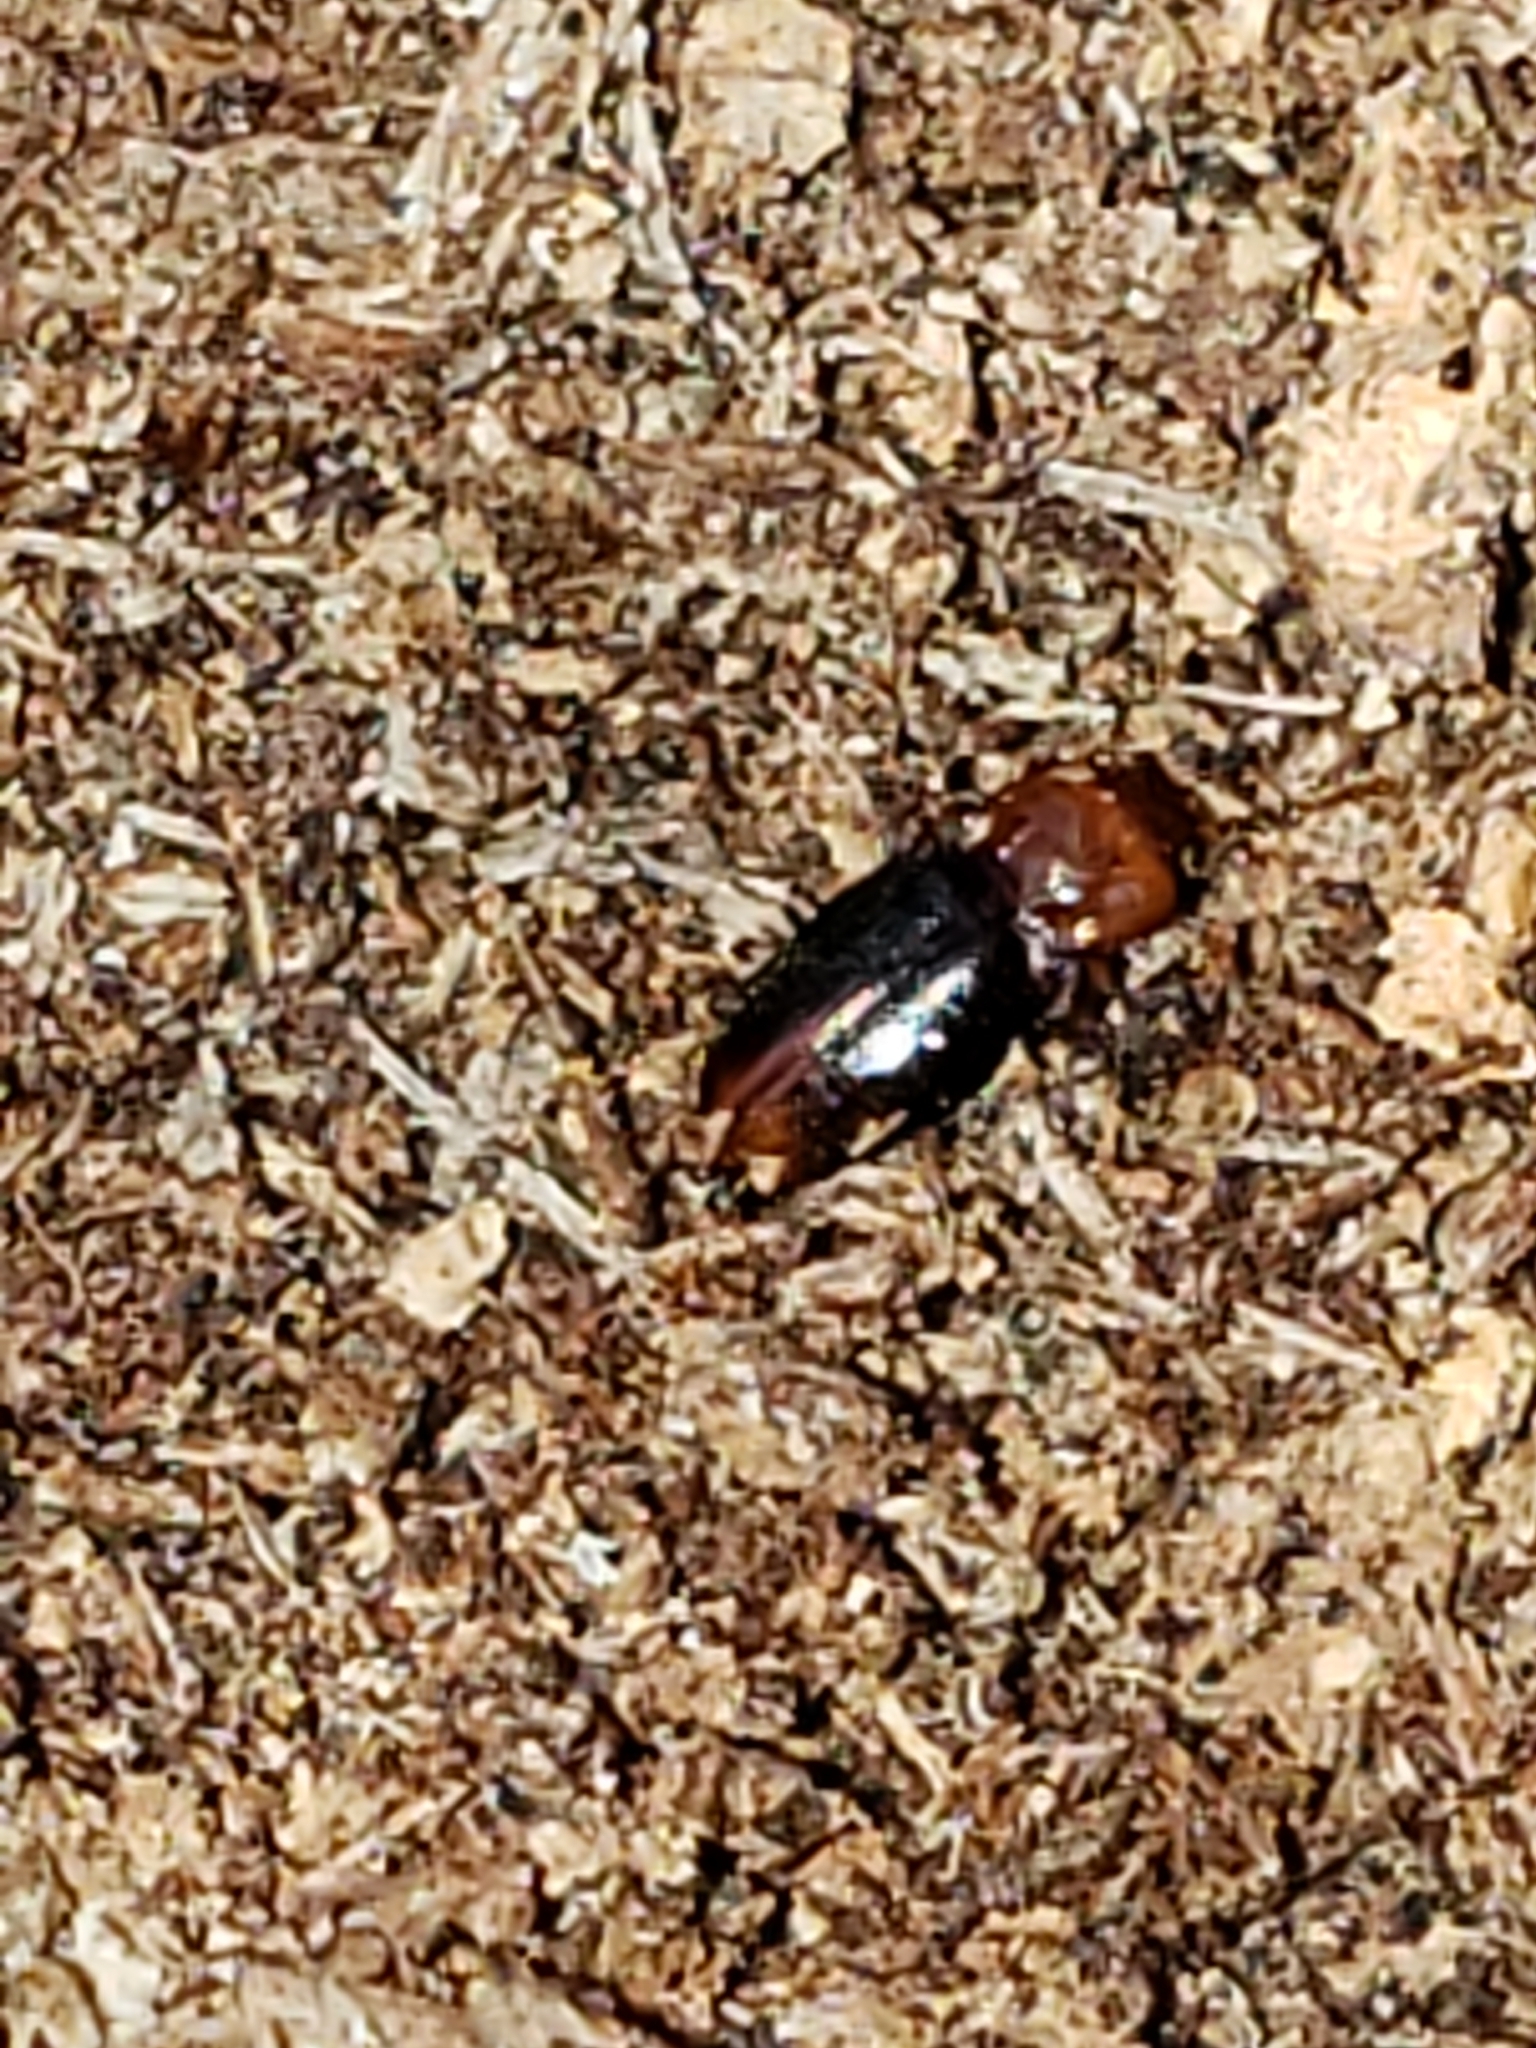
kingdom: Animalia
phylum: Arthropoda
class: Insecta
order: Coleoptera
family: Endomychidae
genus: Rhanidea
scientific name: Rhanidea unicolor
